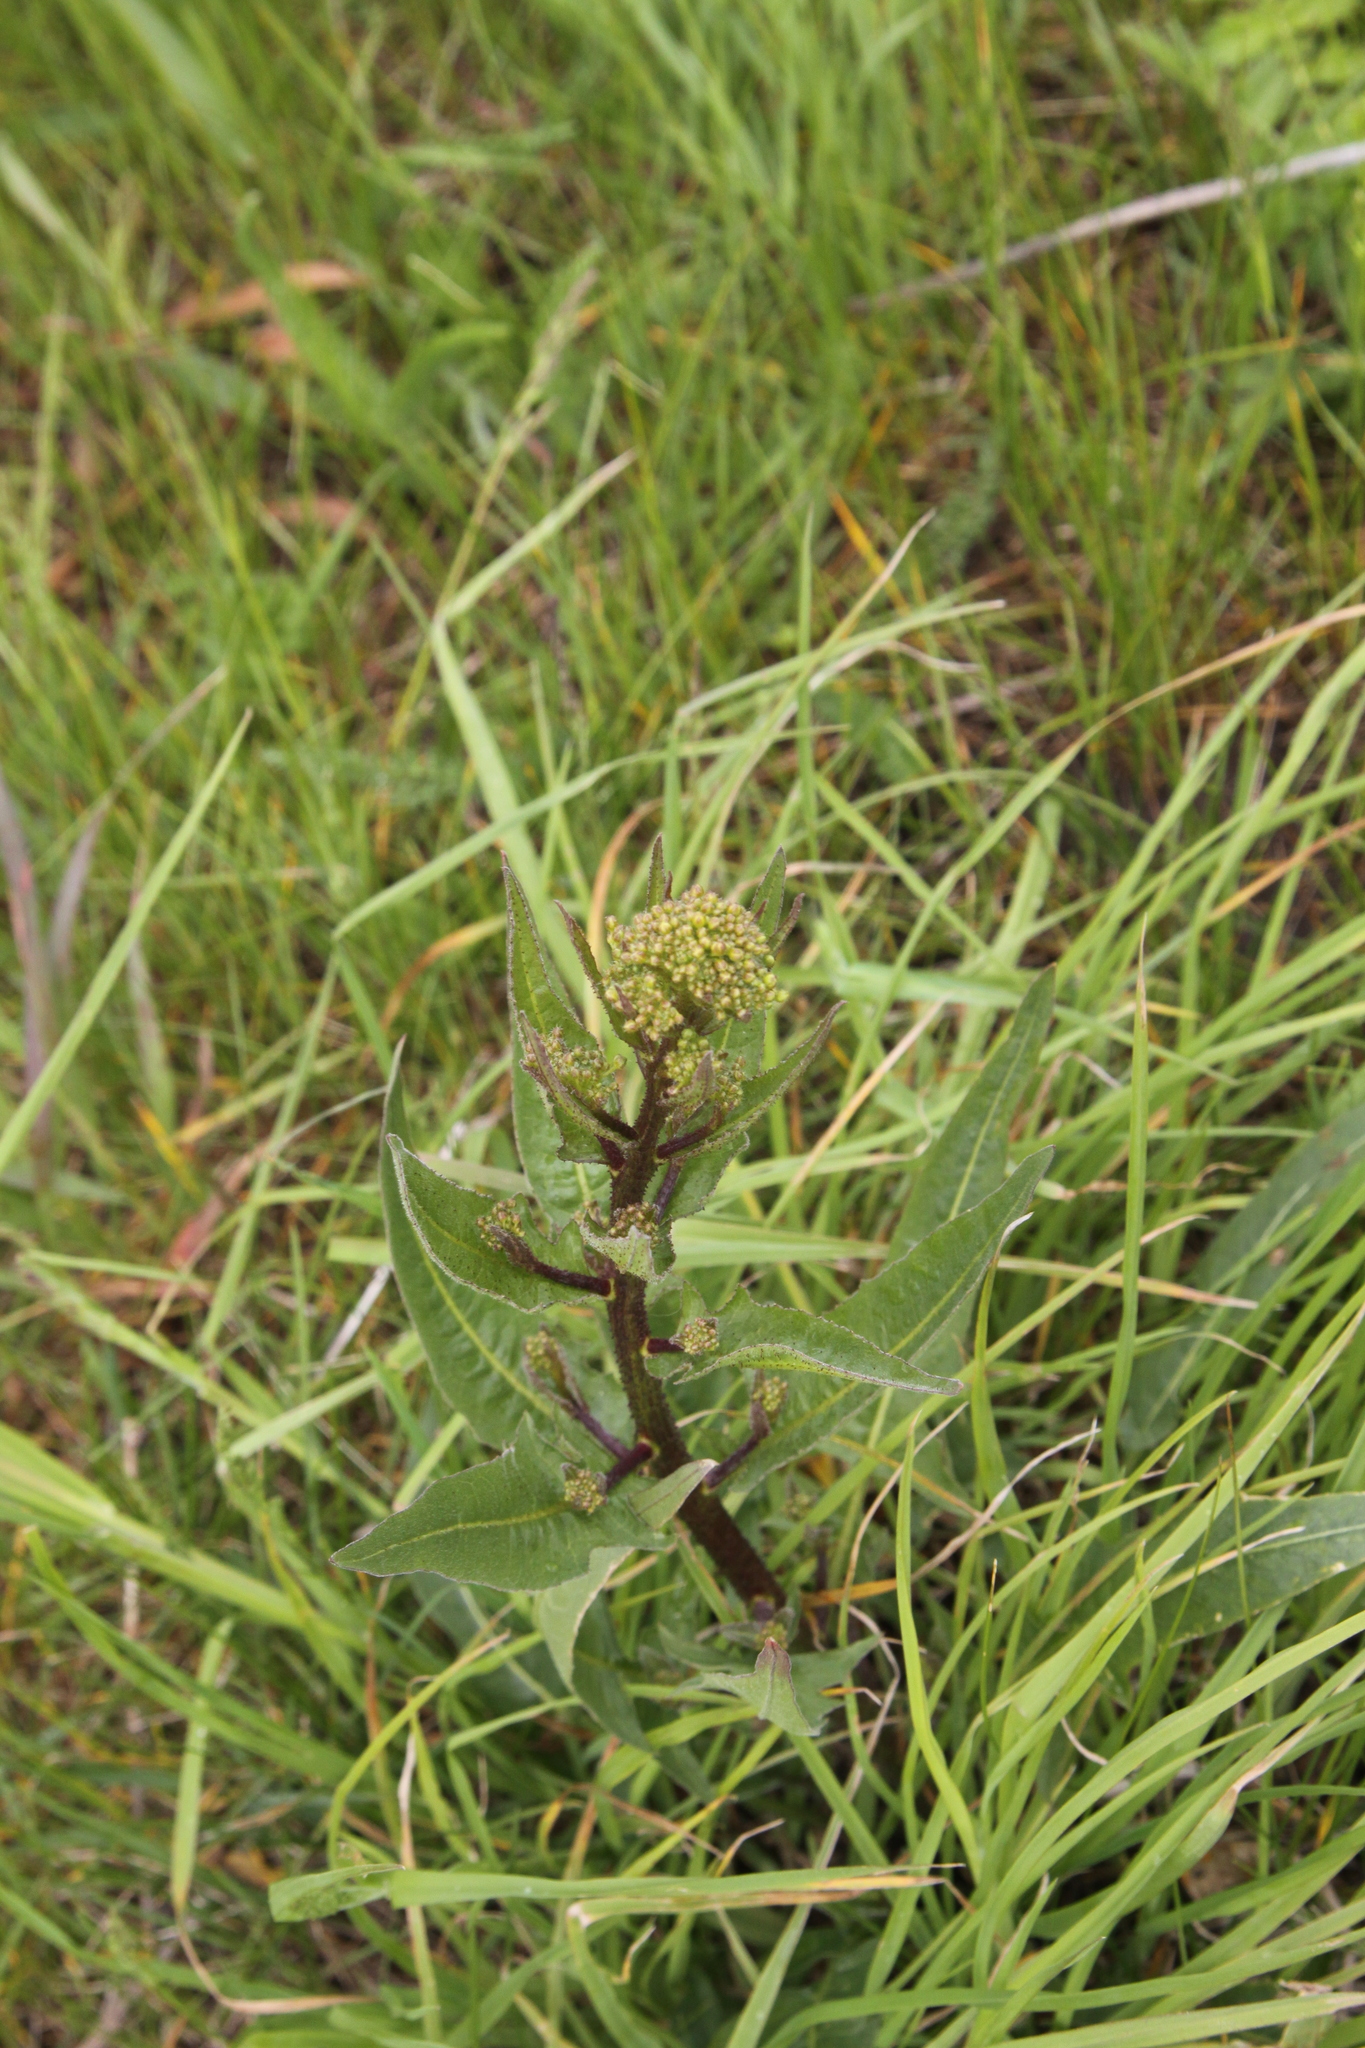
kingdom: Plantae
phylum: Tracheophyta
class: Magnoliopsida
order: Brassicales
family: Brassicaceae
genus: Bunias
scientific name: Bunias orientalis
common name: Warty-cabbage
